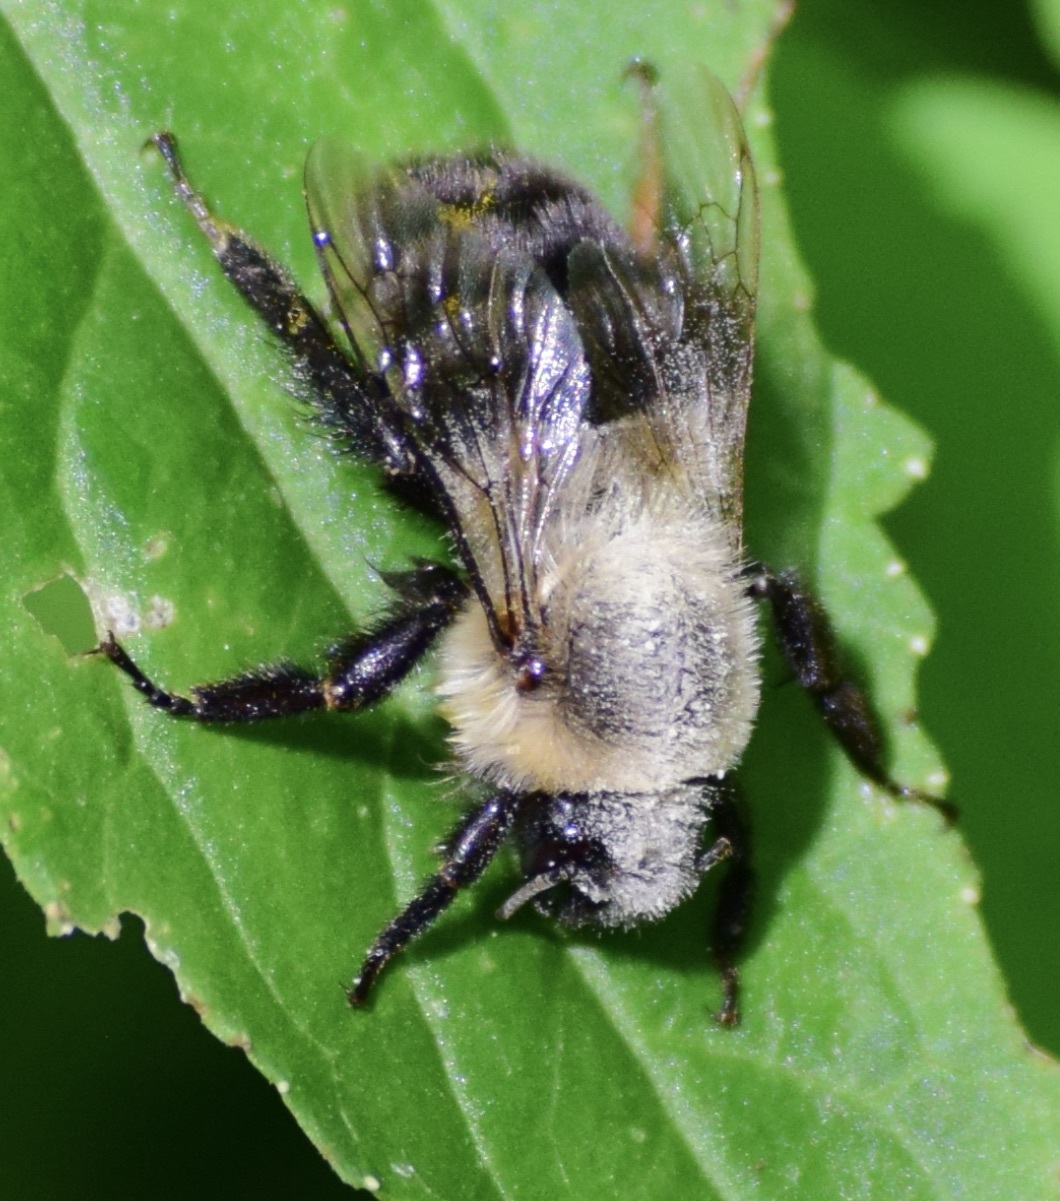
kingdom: Animalia
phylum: Arthropoda
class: Insecta
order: Hymenoptera
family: Apidae
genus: Bombus
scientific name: Bombus impatiens
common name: Common eastern bumble bee
